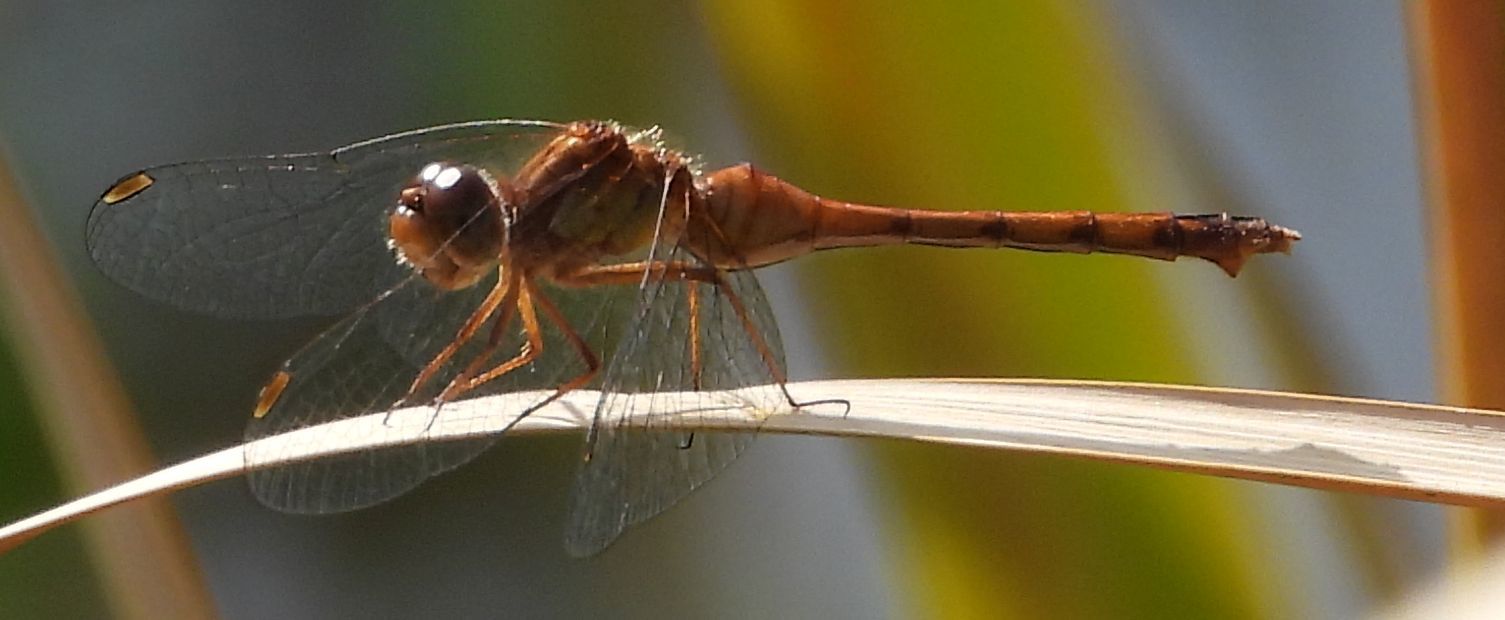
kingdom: Animalia
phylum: Arthropoda
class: Insecta
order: Odonata
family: Libellulidae
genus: Sympetrum
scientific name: Sympetrum vicinum
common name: Autumn meadowhawk
